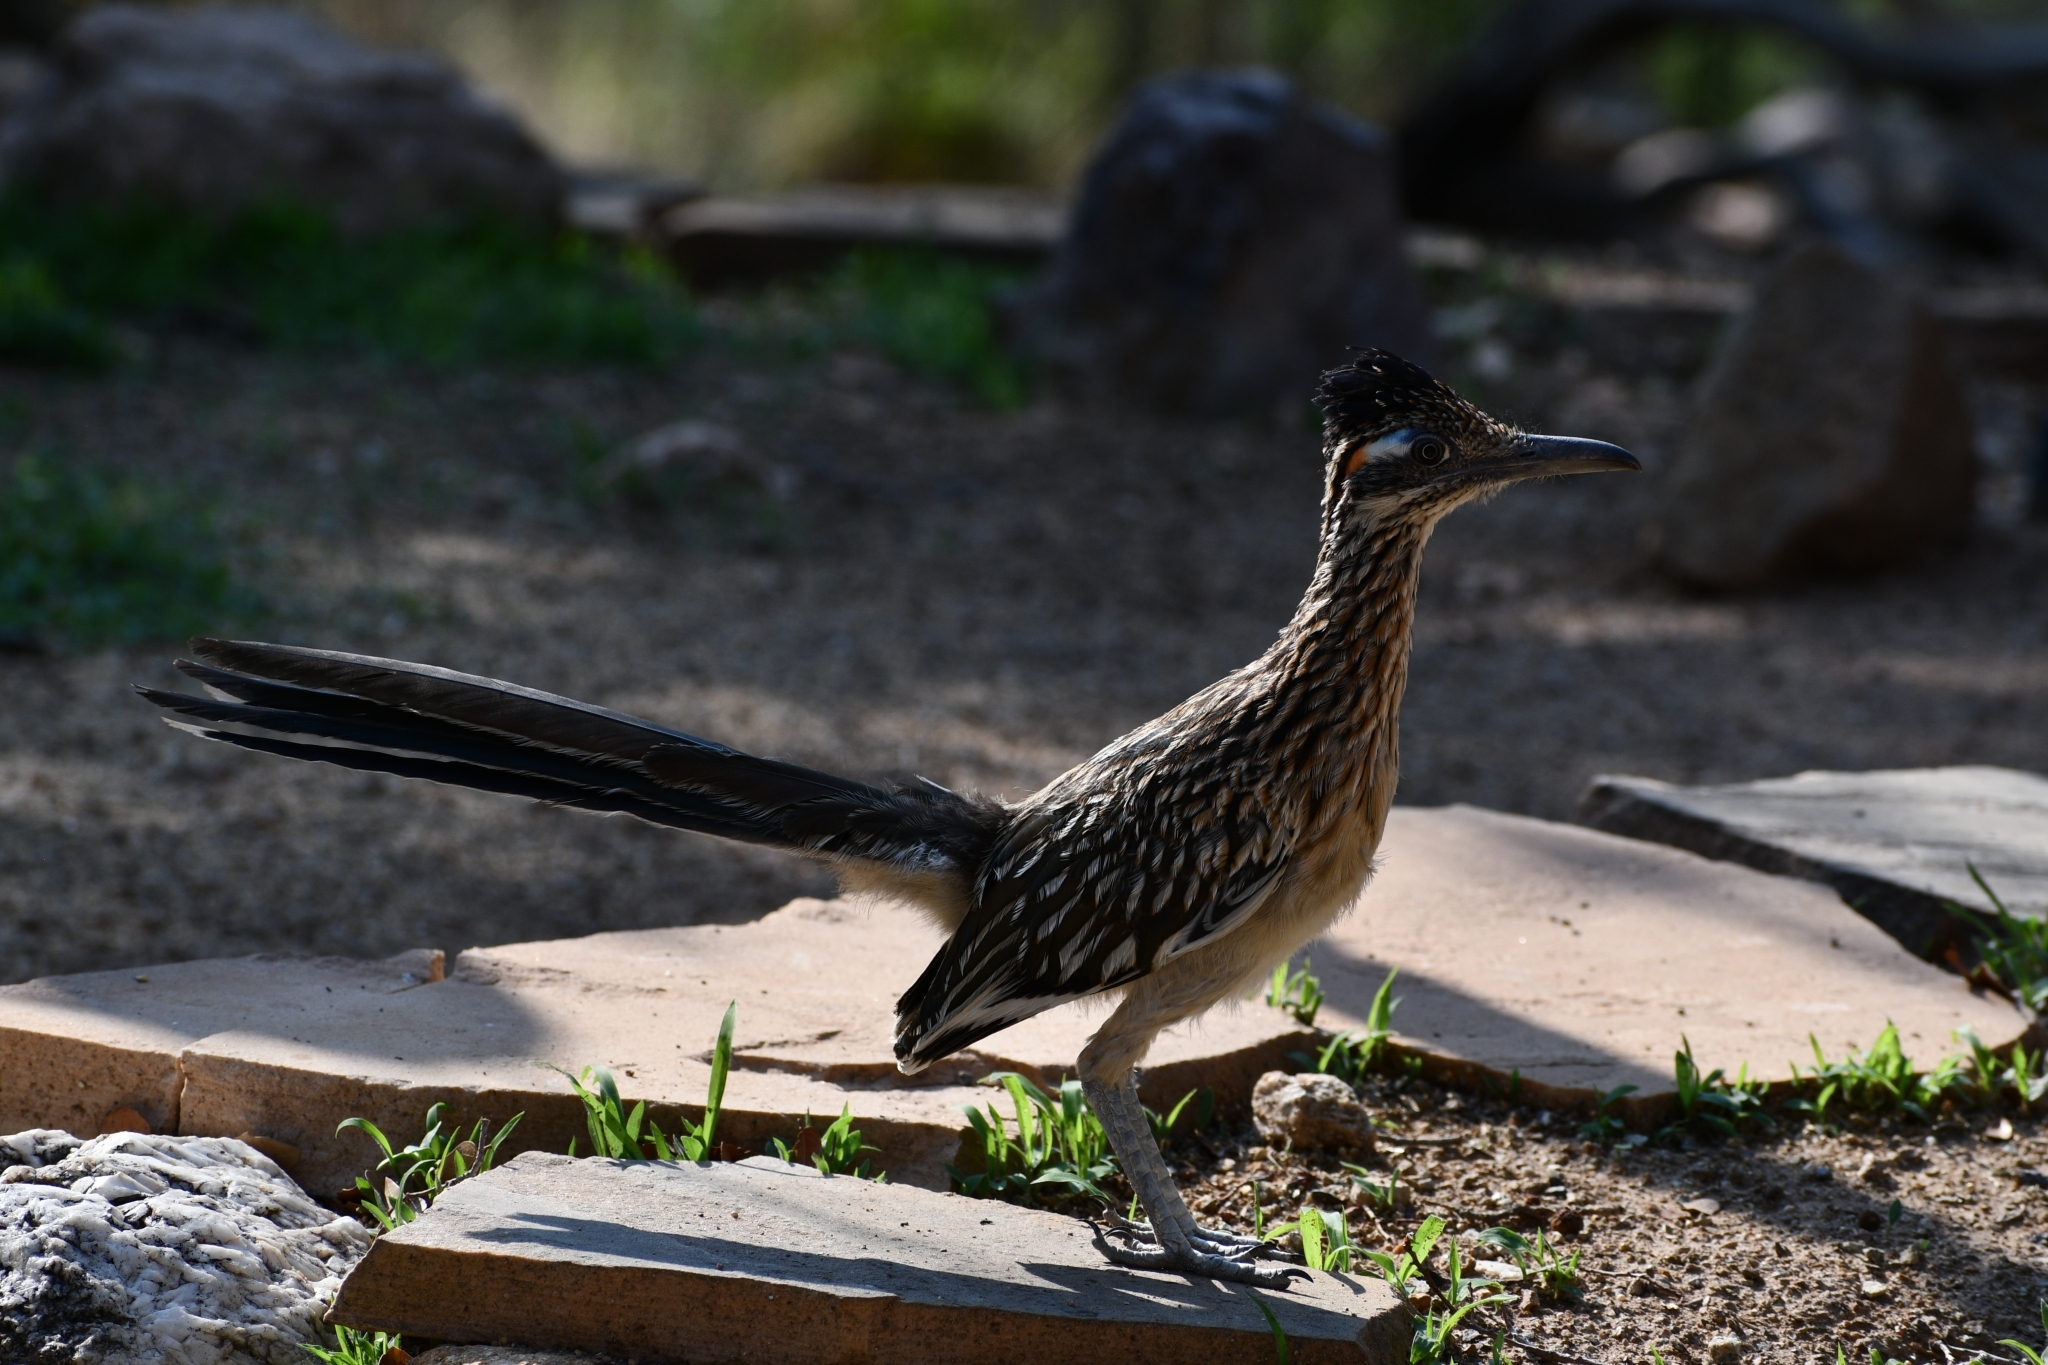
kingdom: Animalia
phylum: Chordata
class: Aves
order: Cuculiformes
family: Cuculidae
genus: Geococcyx
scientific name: Geococcyx californianus
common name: Greater roadrunner
